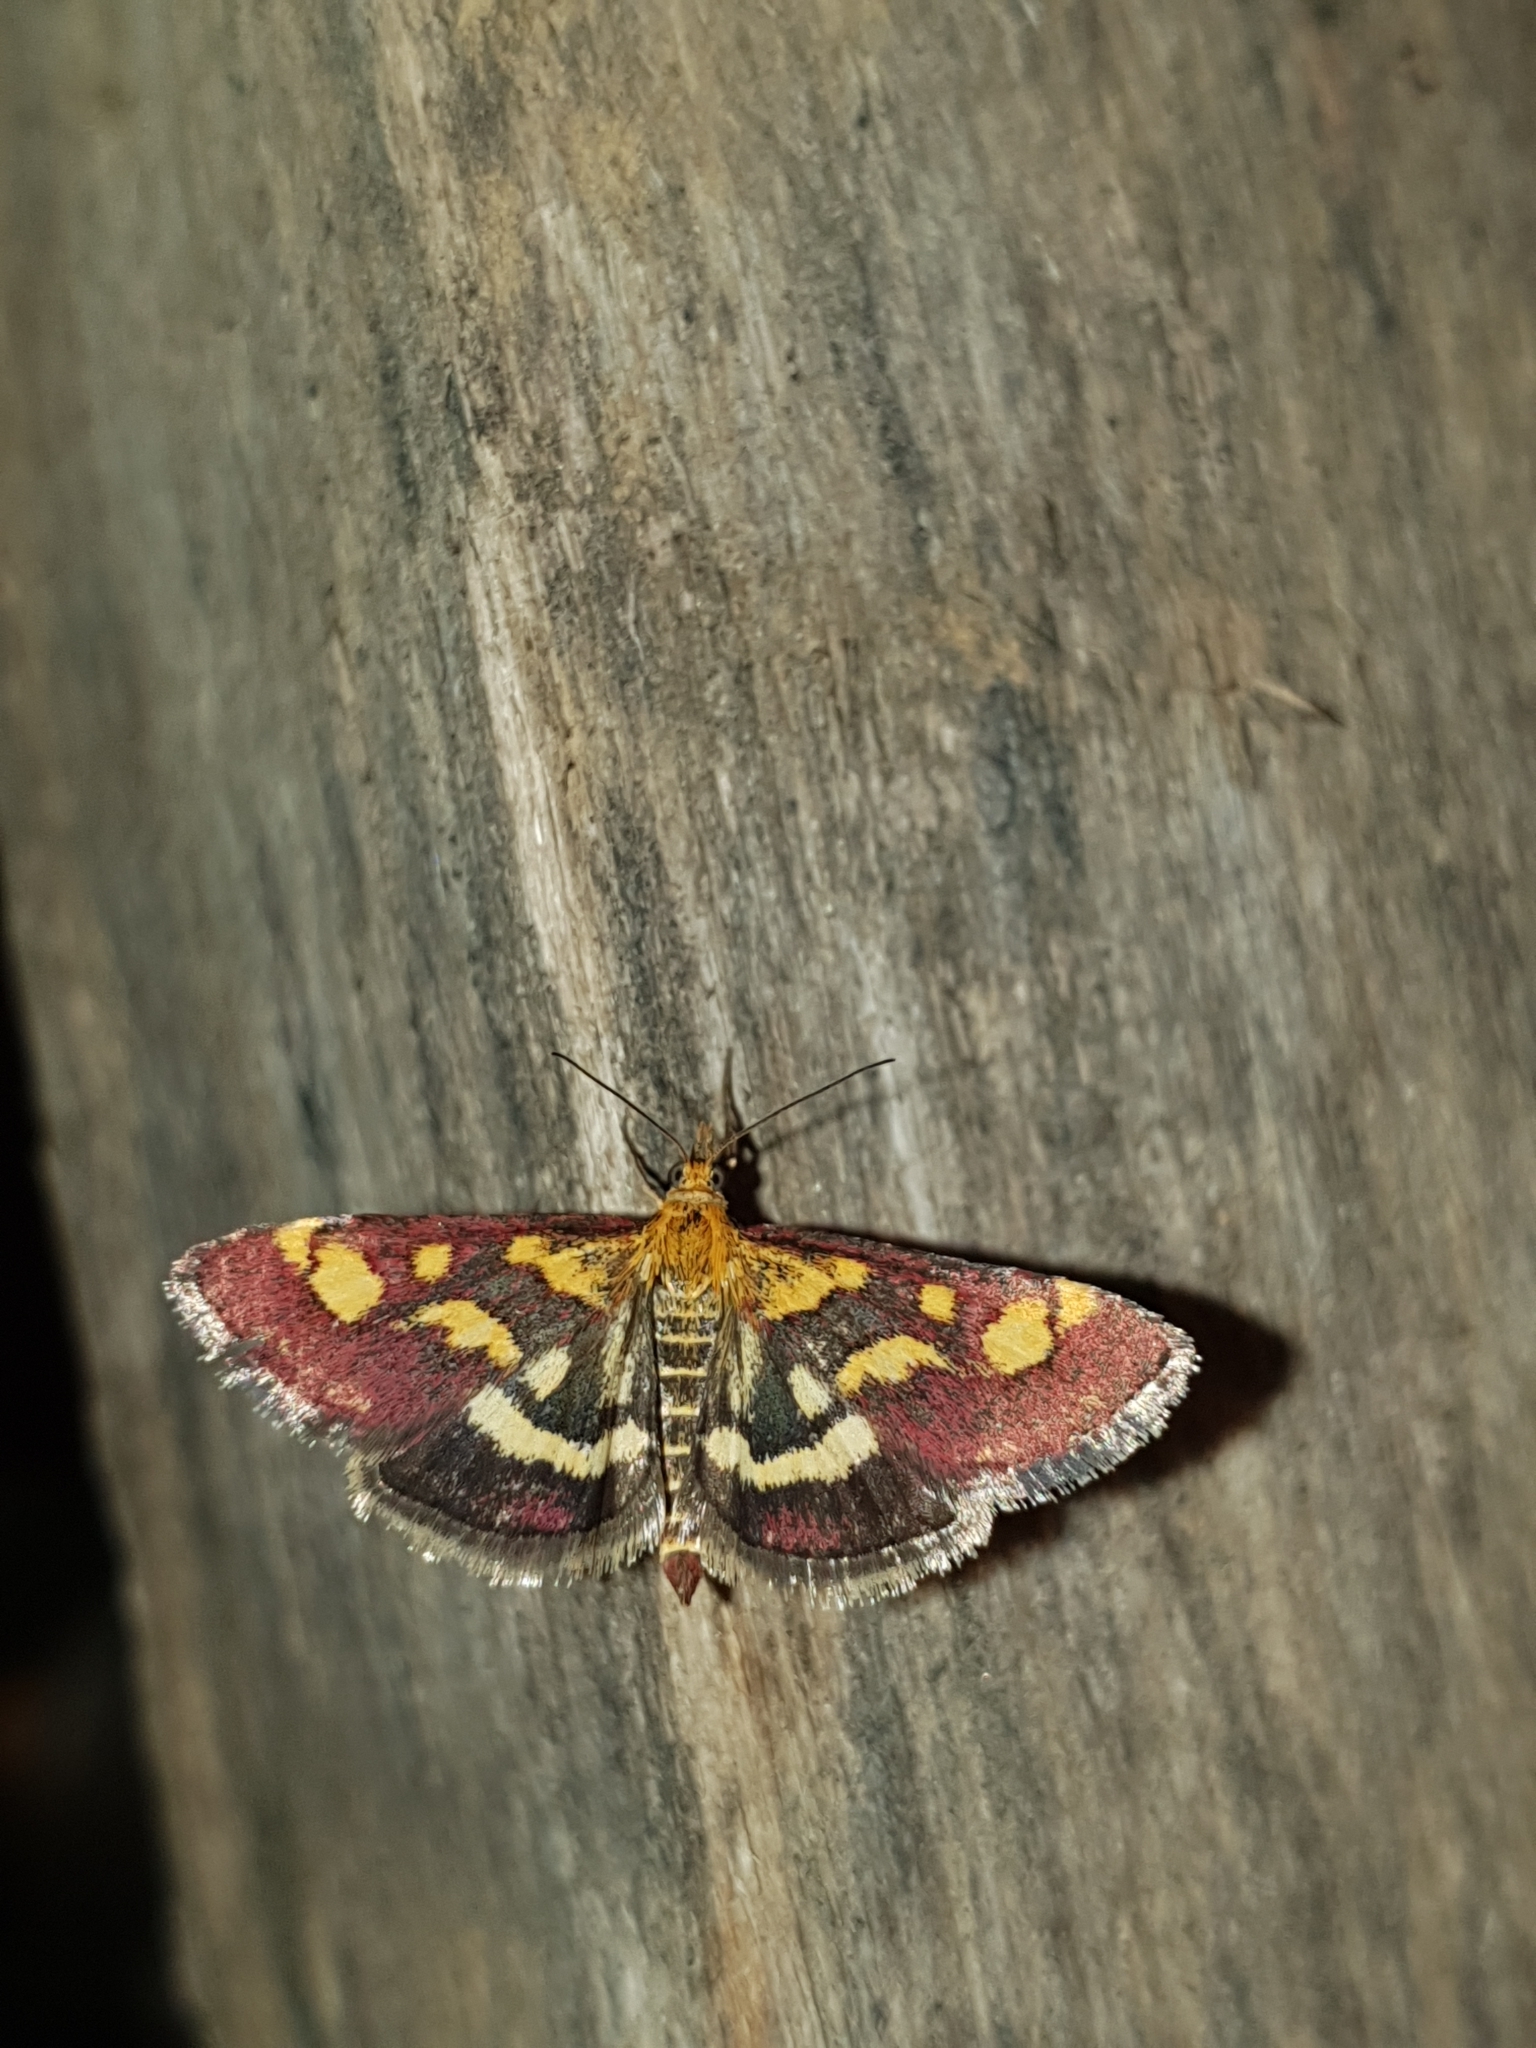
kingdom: Animalia
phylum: Arthropoda
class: Insecta
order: Lepidoptera
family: Crambidae
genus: Pyrausta
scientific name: Pyrausta purpuralis
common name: Common purple & gold
